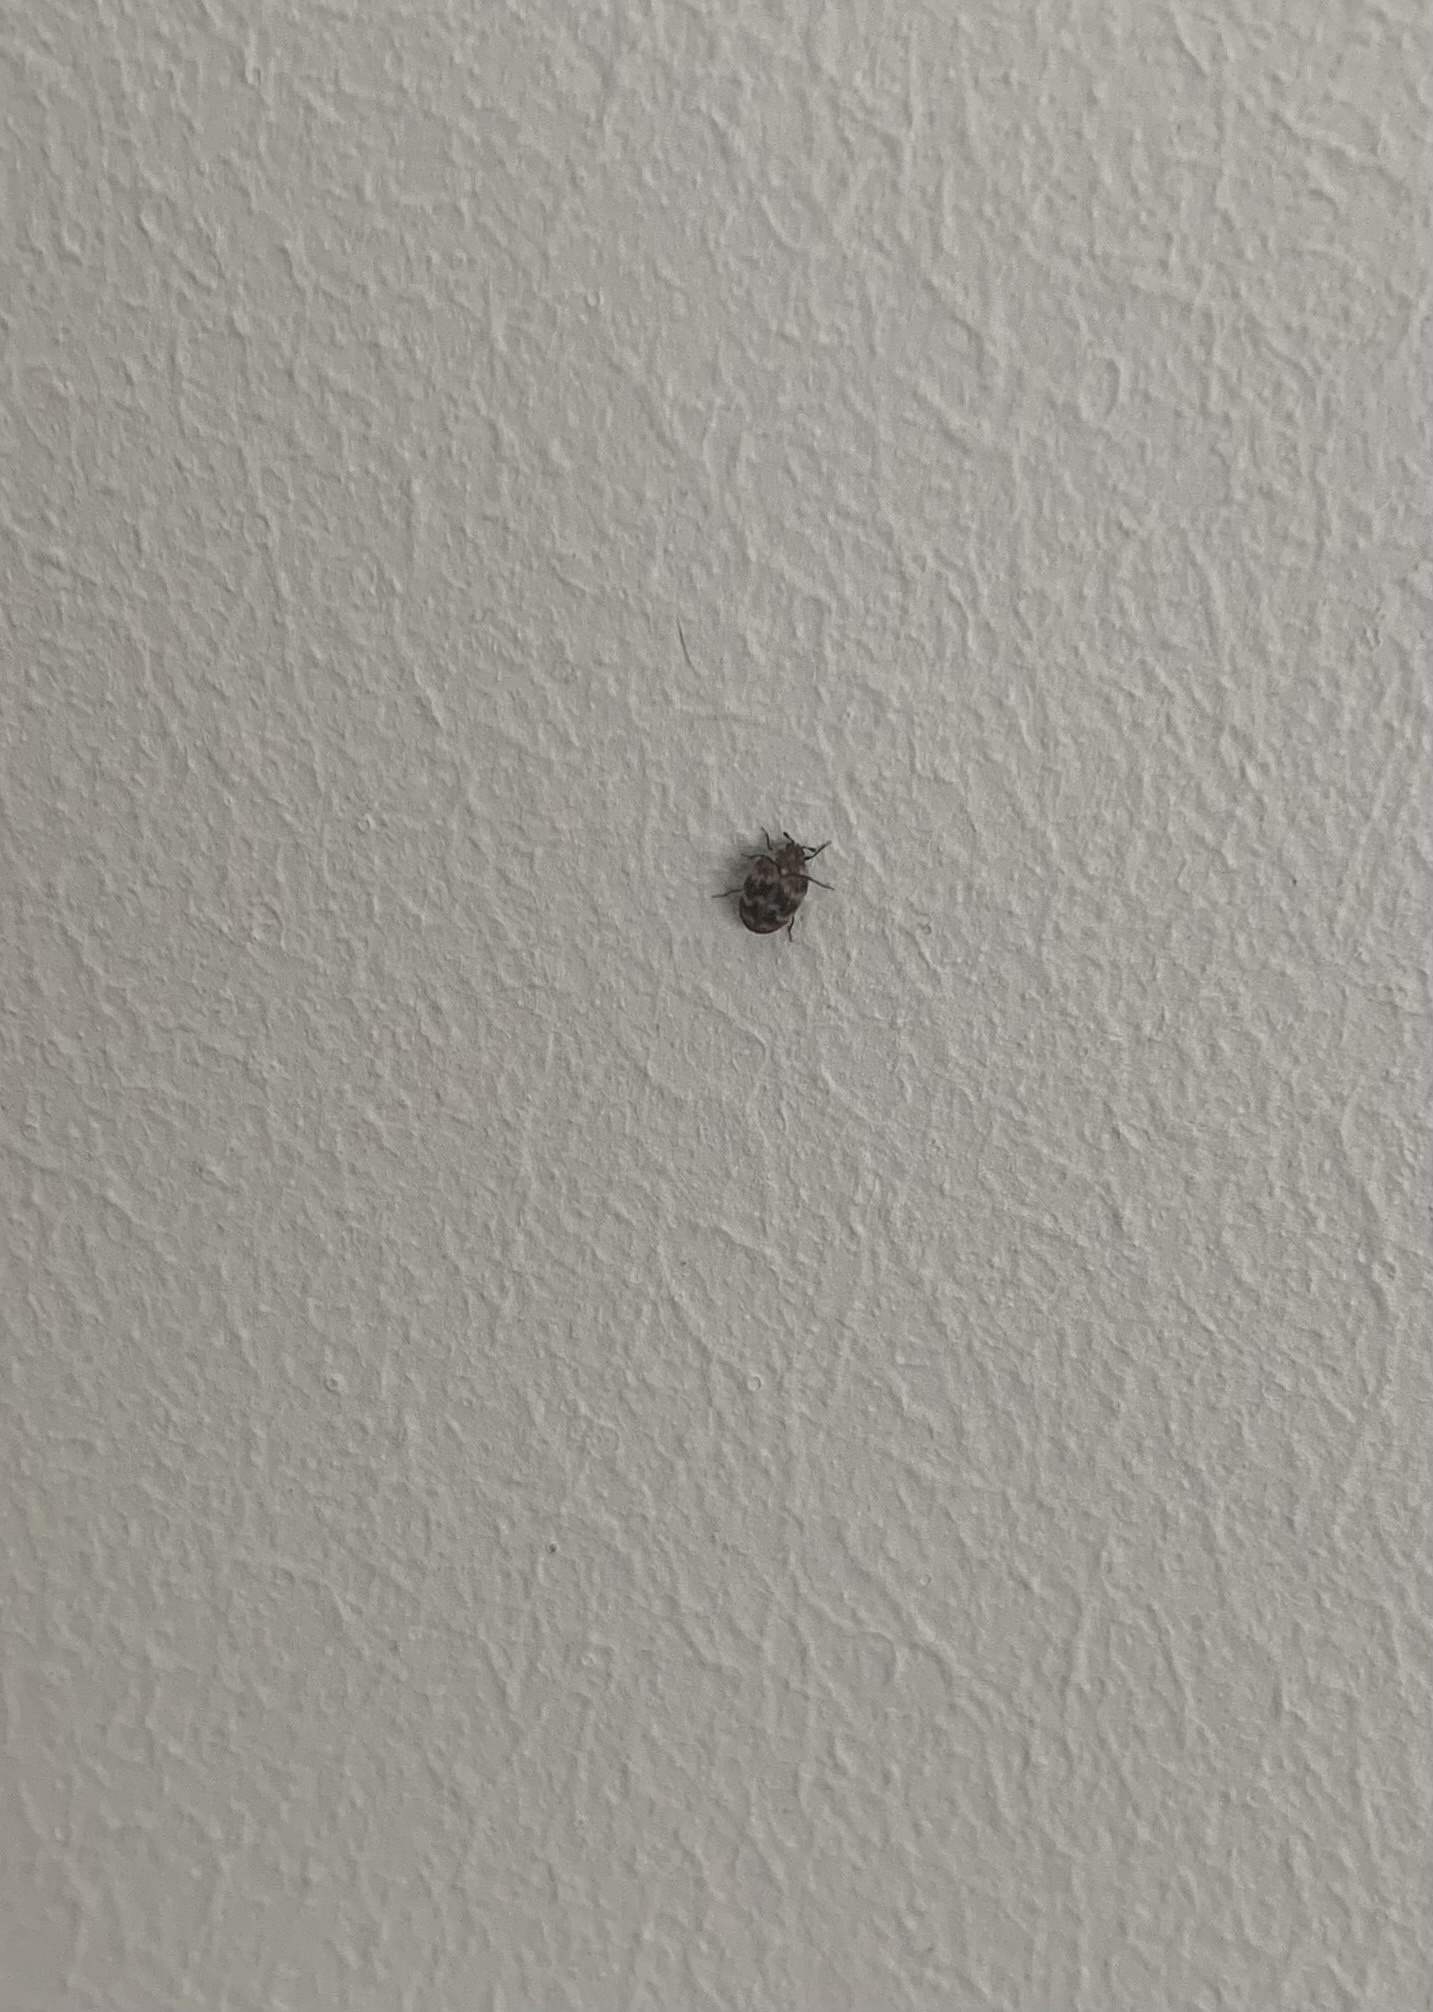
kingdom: Animalia
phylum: Arthropoda
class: Insecta
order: Coleoptera
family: Dermestidae
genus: Anthrenus
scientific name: Anthrenus verbasci
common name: Varied carpet beetle
